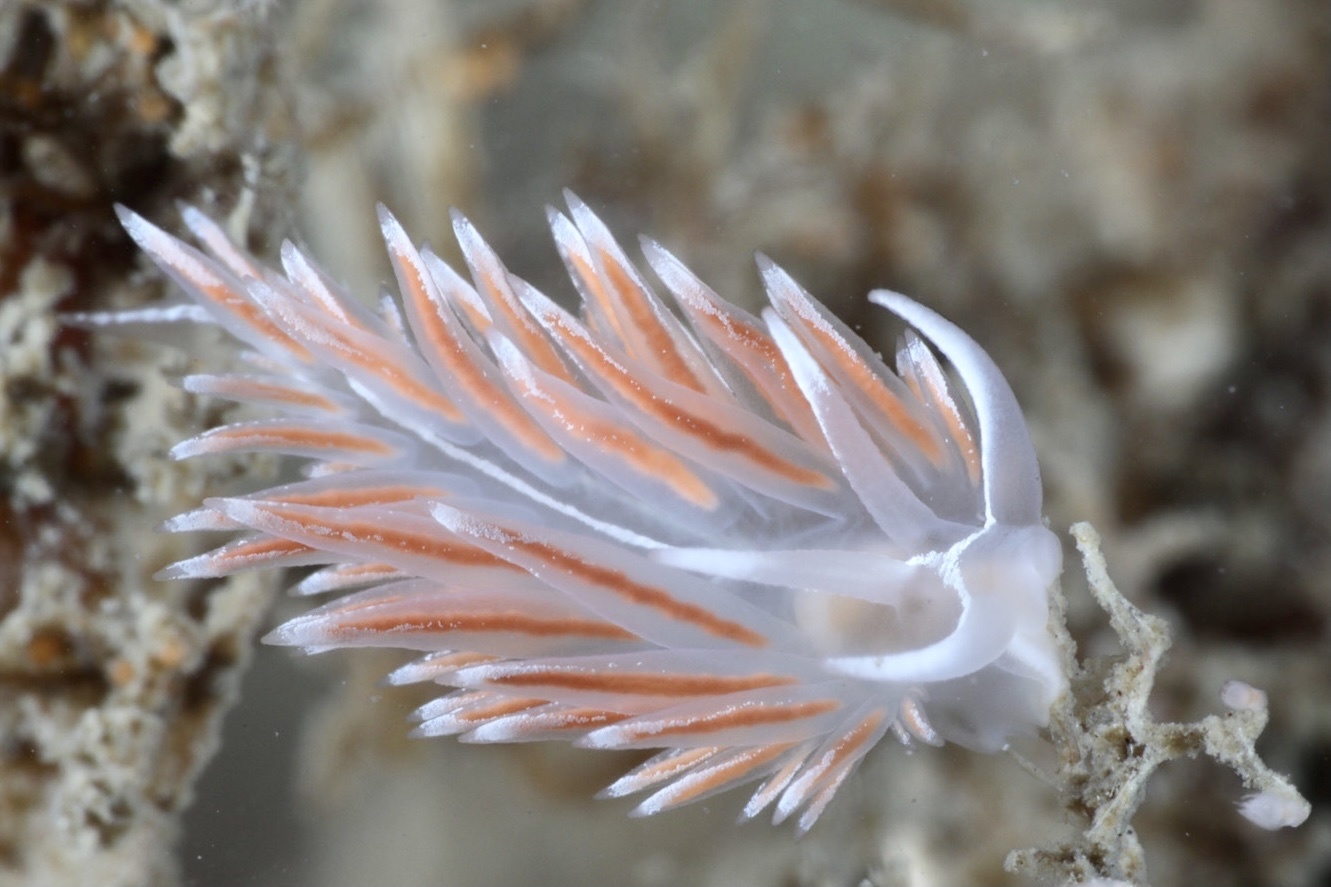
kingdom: Animalia
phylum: Mollusca
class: Gastropoda
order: Nudibranchia
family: Coryphellidae
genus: Coryphella
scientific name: Coryphella lineata
